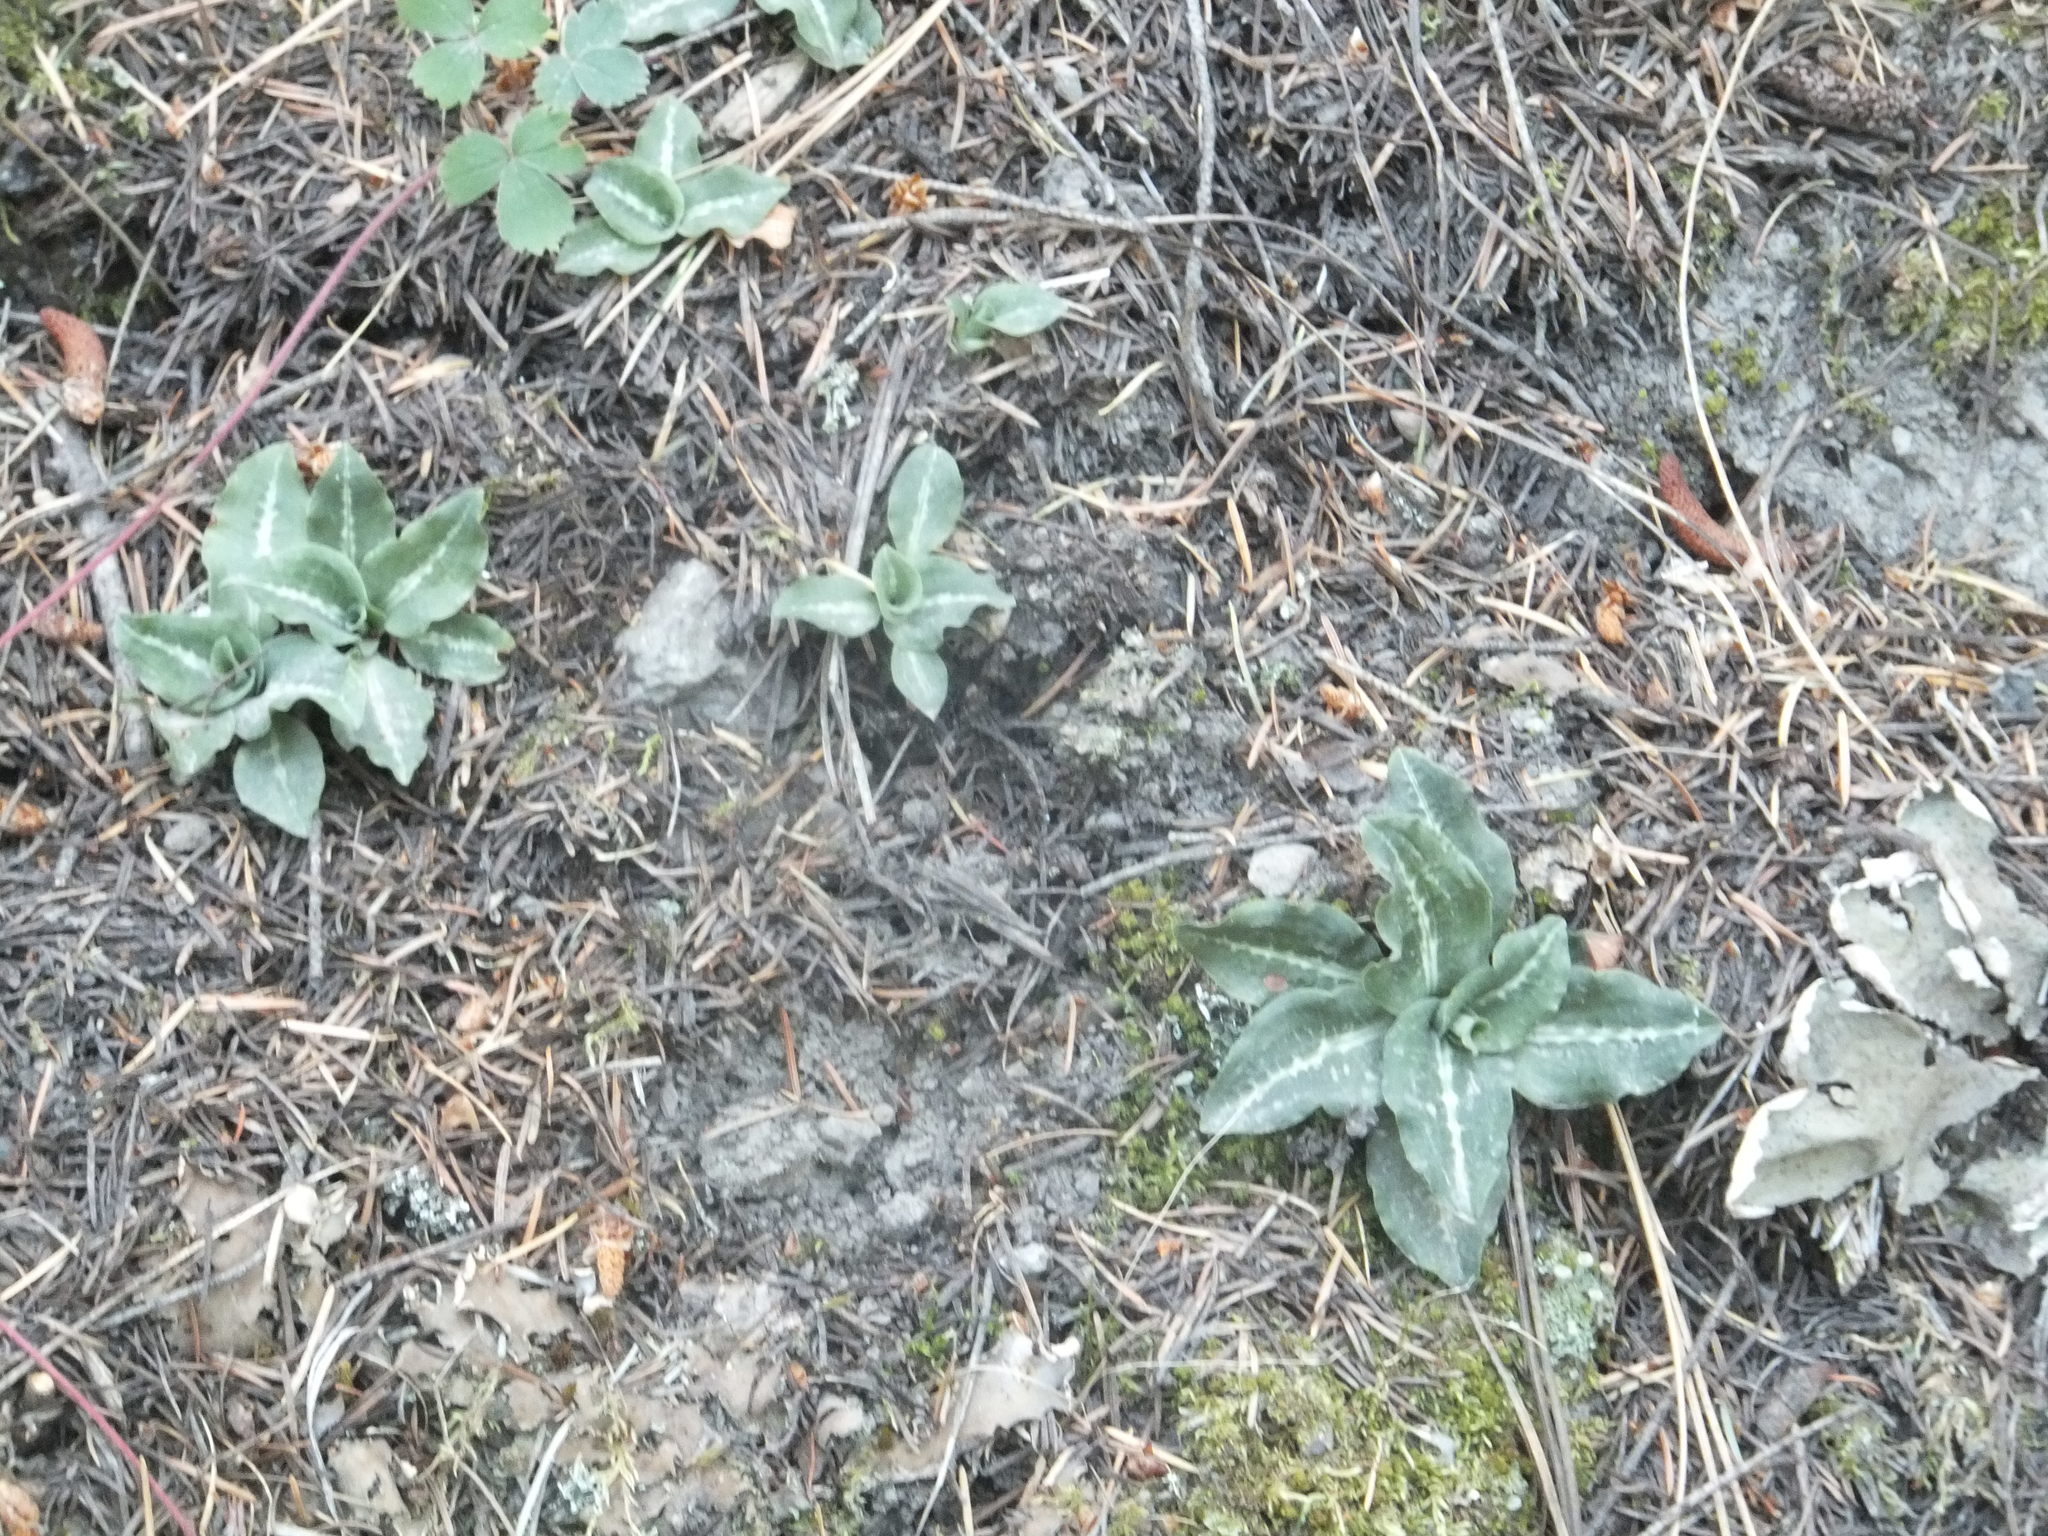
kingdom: Plantae
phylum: Tracheophyta
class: Liliopsida
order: Asparagales
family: Orchidaceae
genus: Goodyera
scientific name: Goodyera oblongifolia
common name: Giant rattlesnake-plantain
